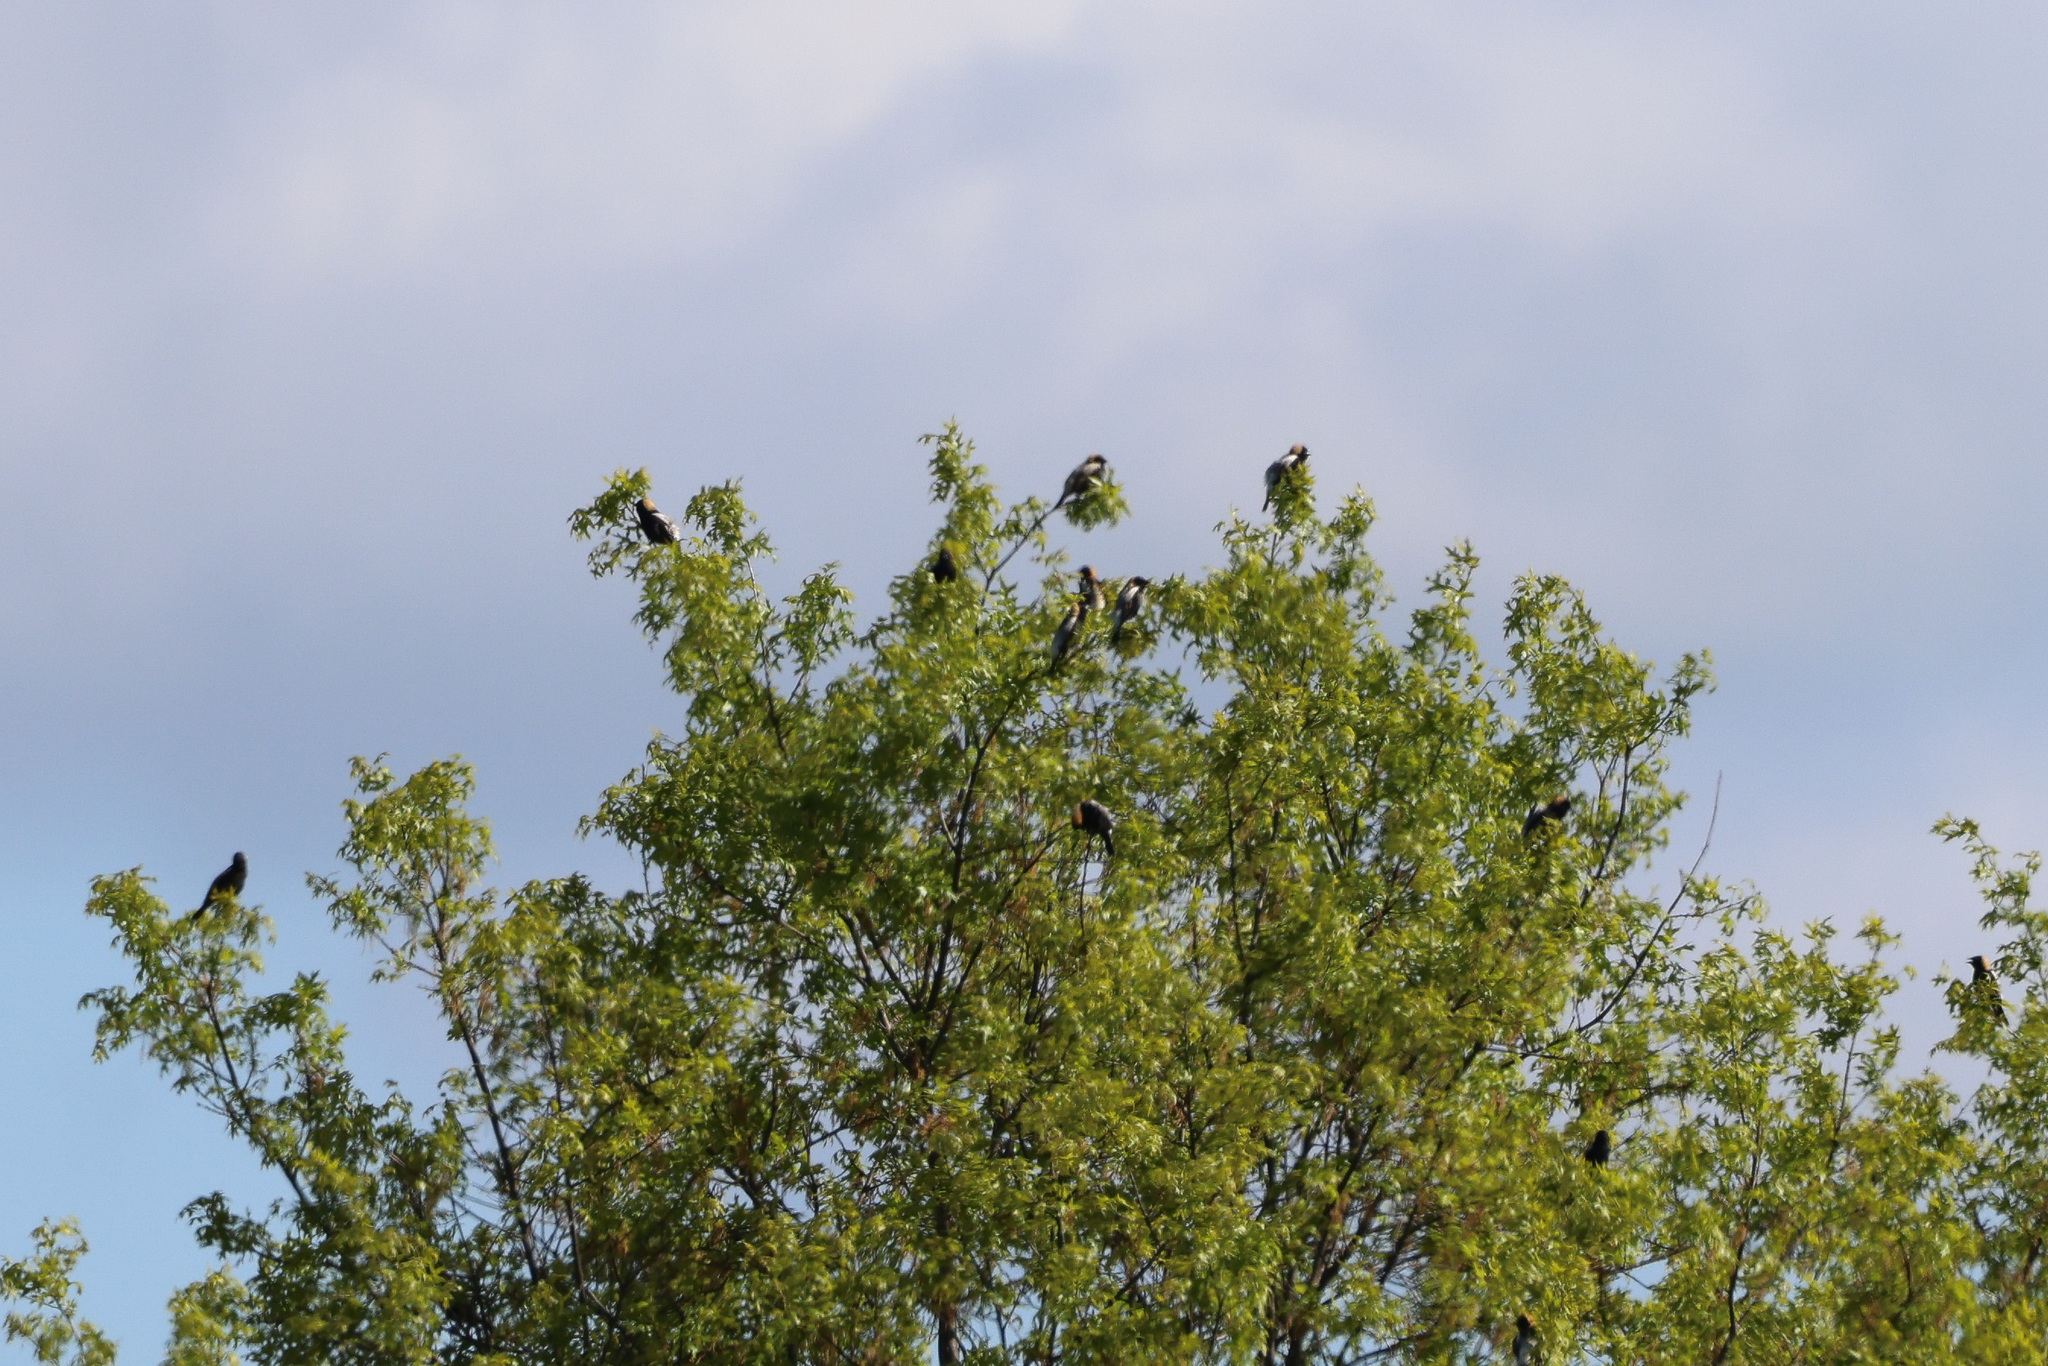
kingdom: Animalia
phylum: Chordata
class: Aves
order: Passeriformes
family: Icteridae
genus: Dolichonyx
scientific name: Dolichonyx oryzivorus
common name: Bobolink
